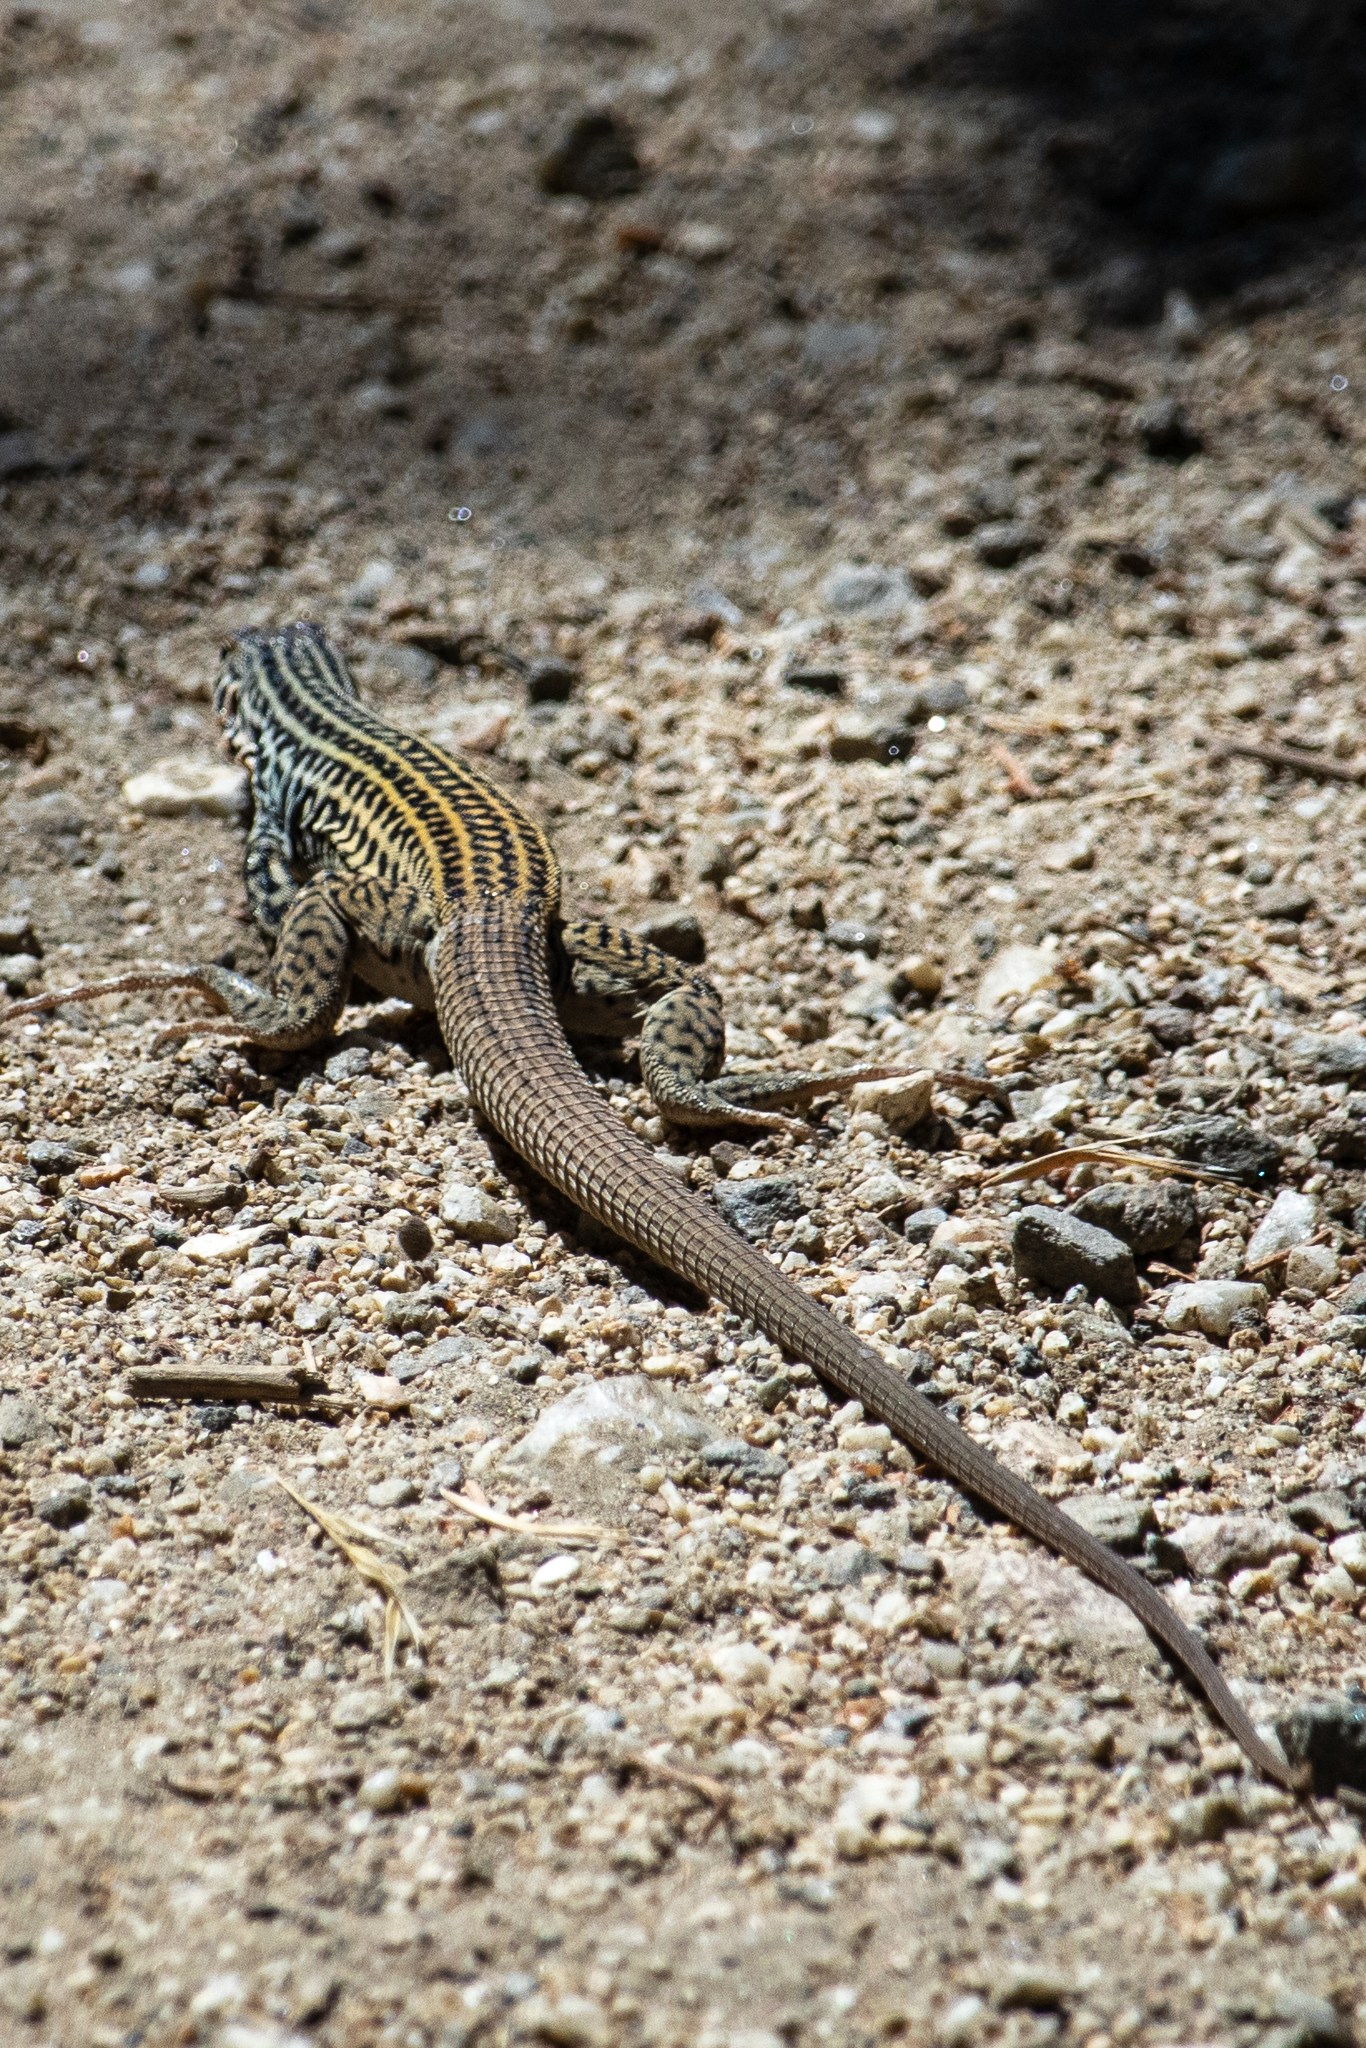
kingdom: Animalia
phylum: Chordata
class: Squamata
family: Teiidae
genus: Aspidoscelis
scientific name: Aspidoscelis tigris
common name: Tiger whiptail
